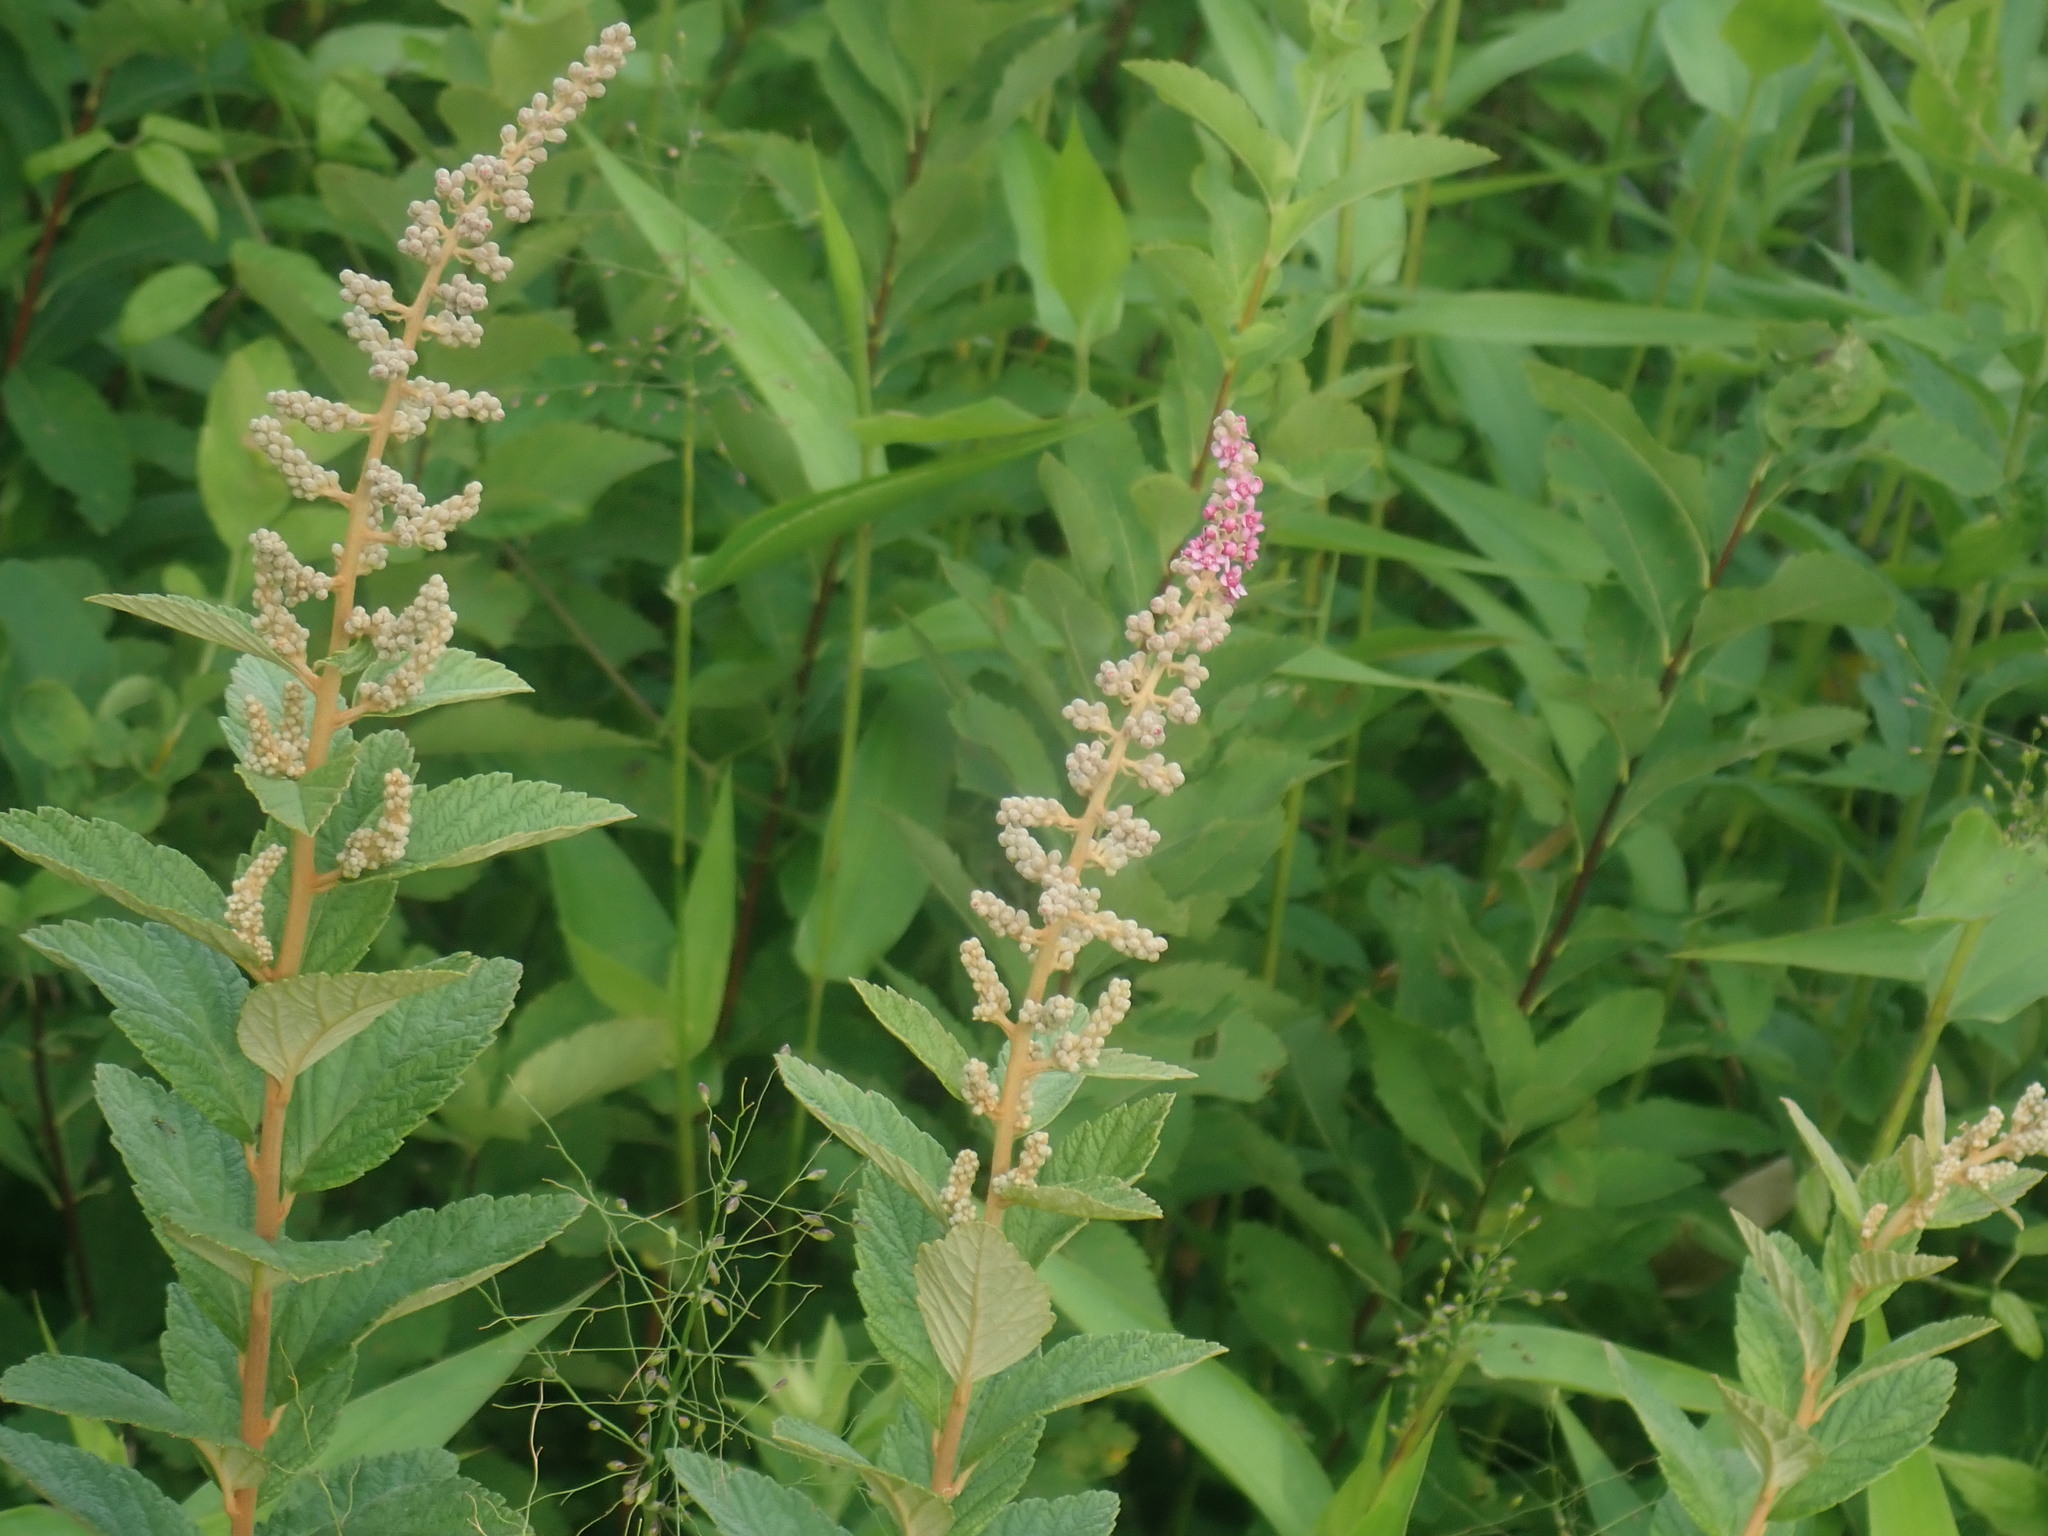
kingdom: Plantae
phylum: Tracheophyta
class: Magnoliopsida
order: Rosales
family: Rosaceae
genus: Spiraea
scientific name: Spiraea tomentosa
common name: Hardhack
